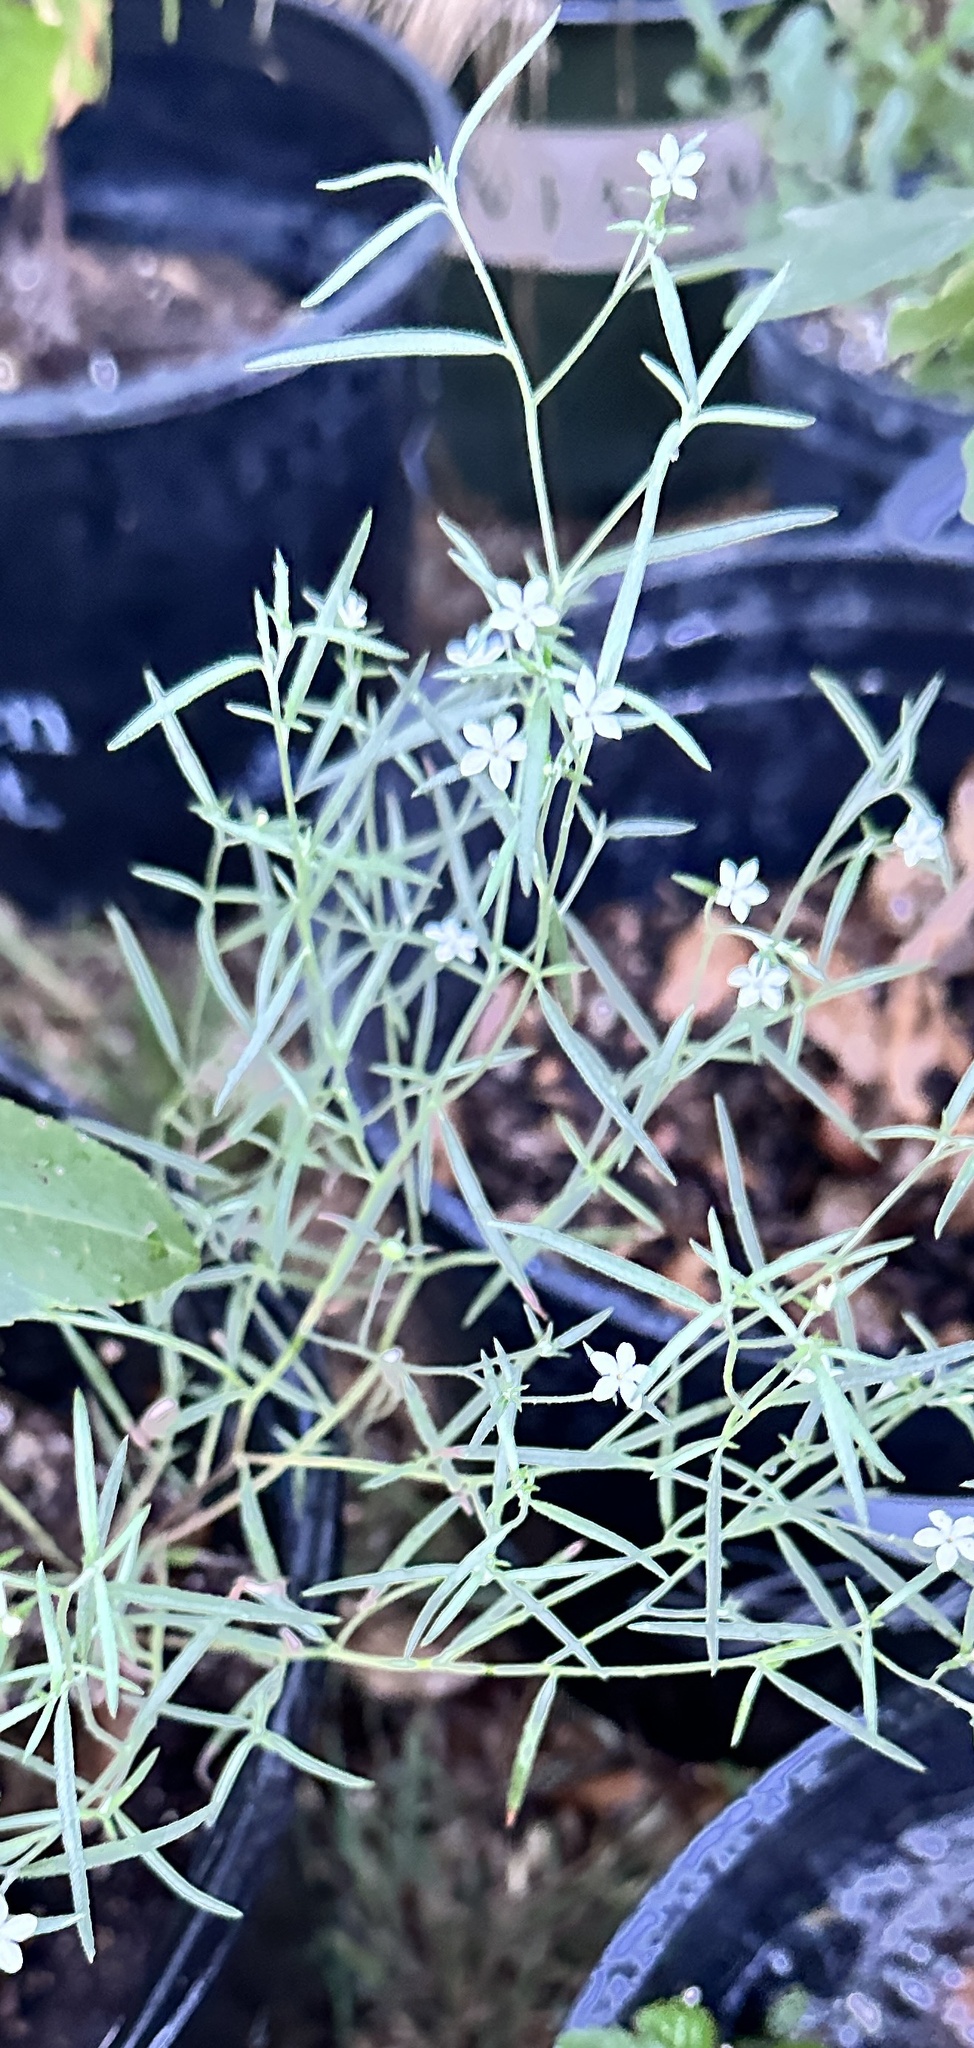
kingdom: Plantae
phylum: Tracheophyta
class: Magnoliopsida
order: Boraginales
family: Heliotropiaceae
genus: Euploca
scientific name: Euploca tenella
